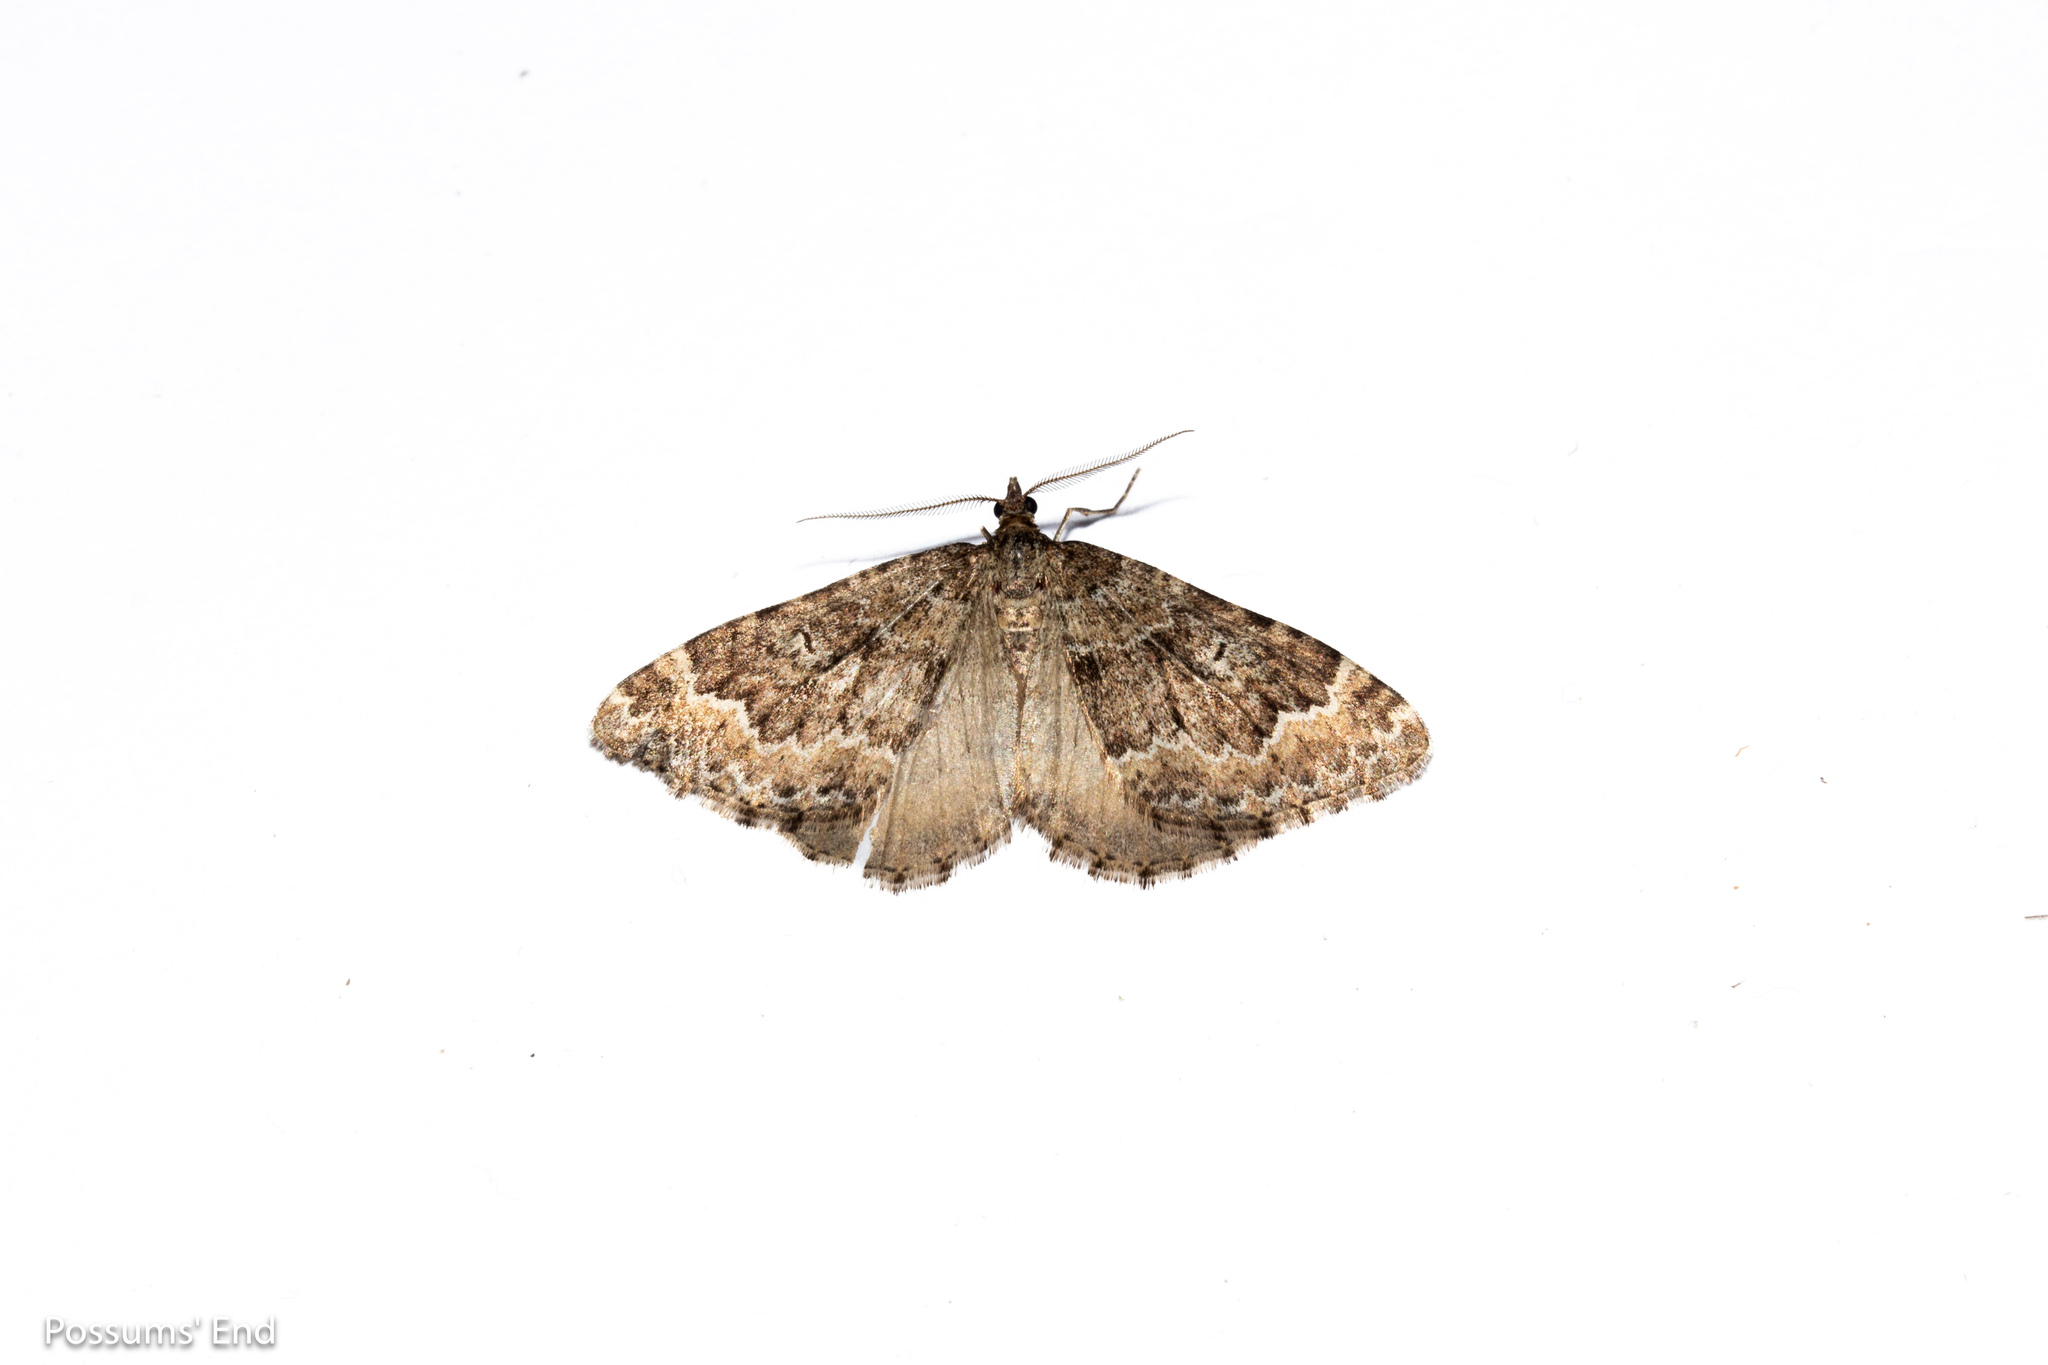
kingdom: Animalia
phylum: Arthropoda
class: Insecta
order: Lepidoptera
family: Geometridae
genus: Asaphodes
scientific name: Asaphodes ida
